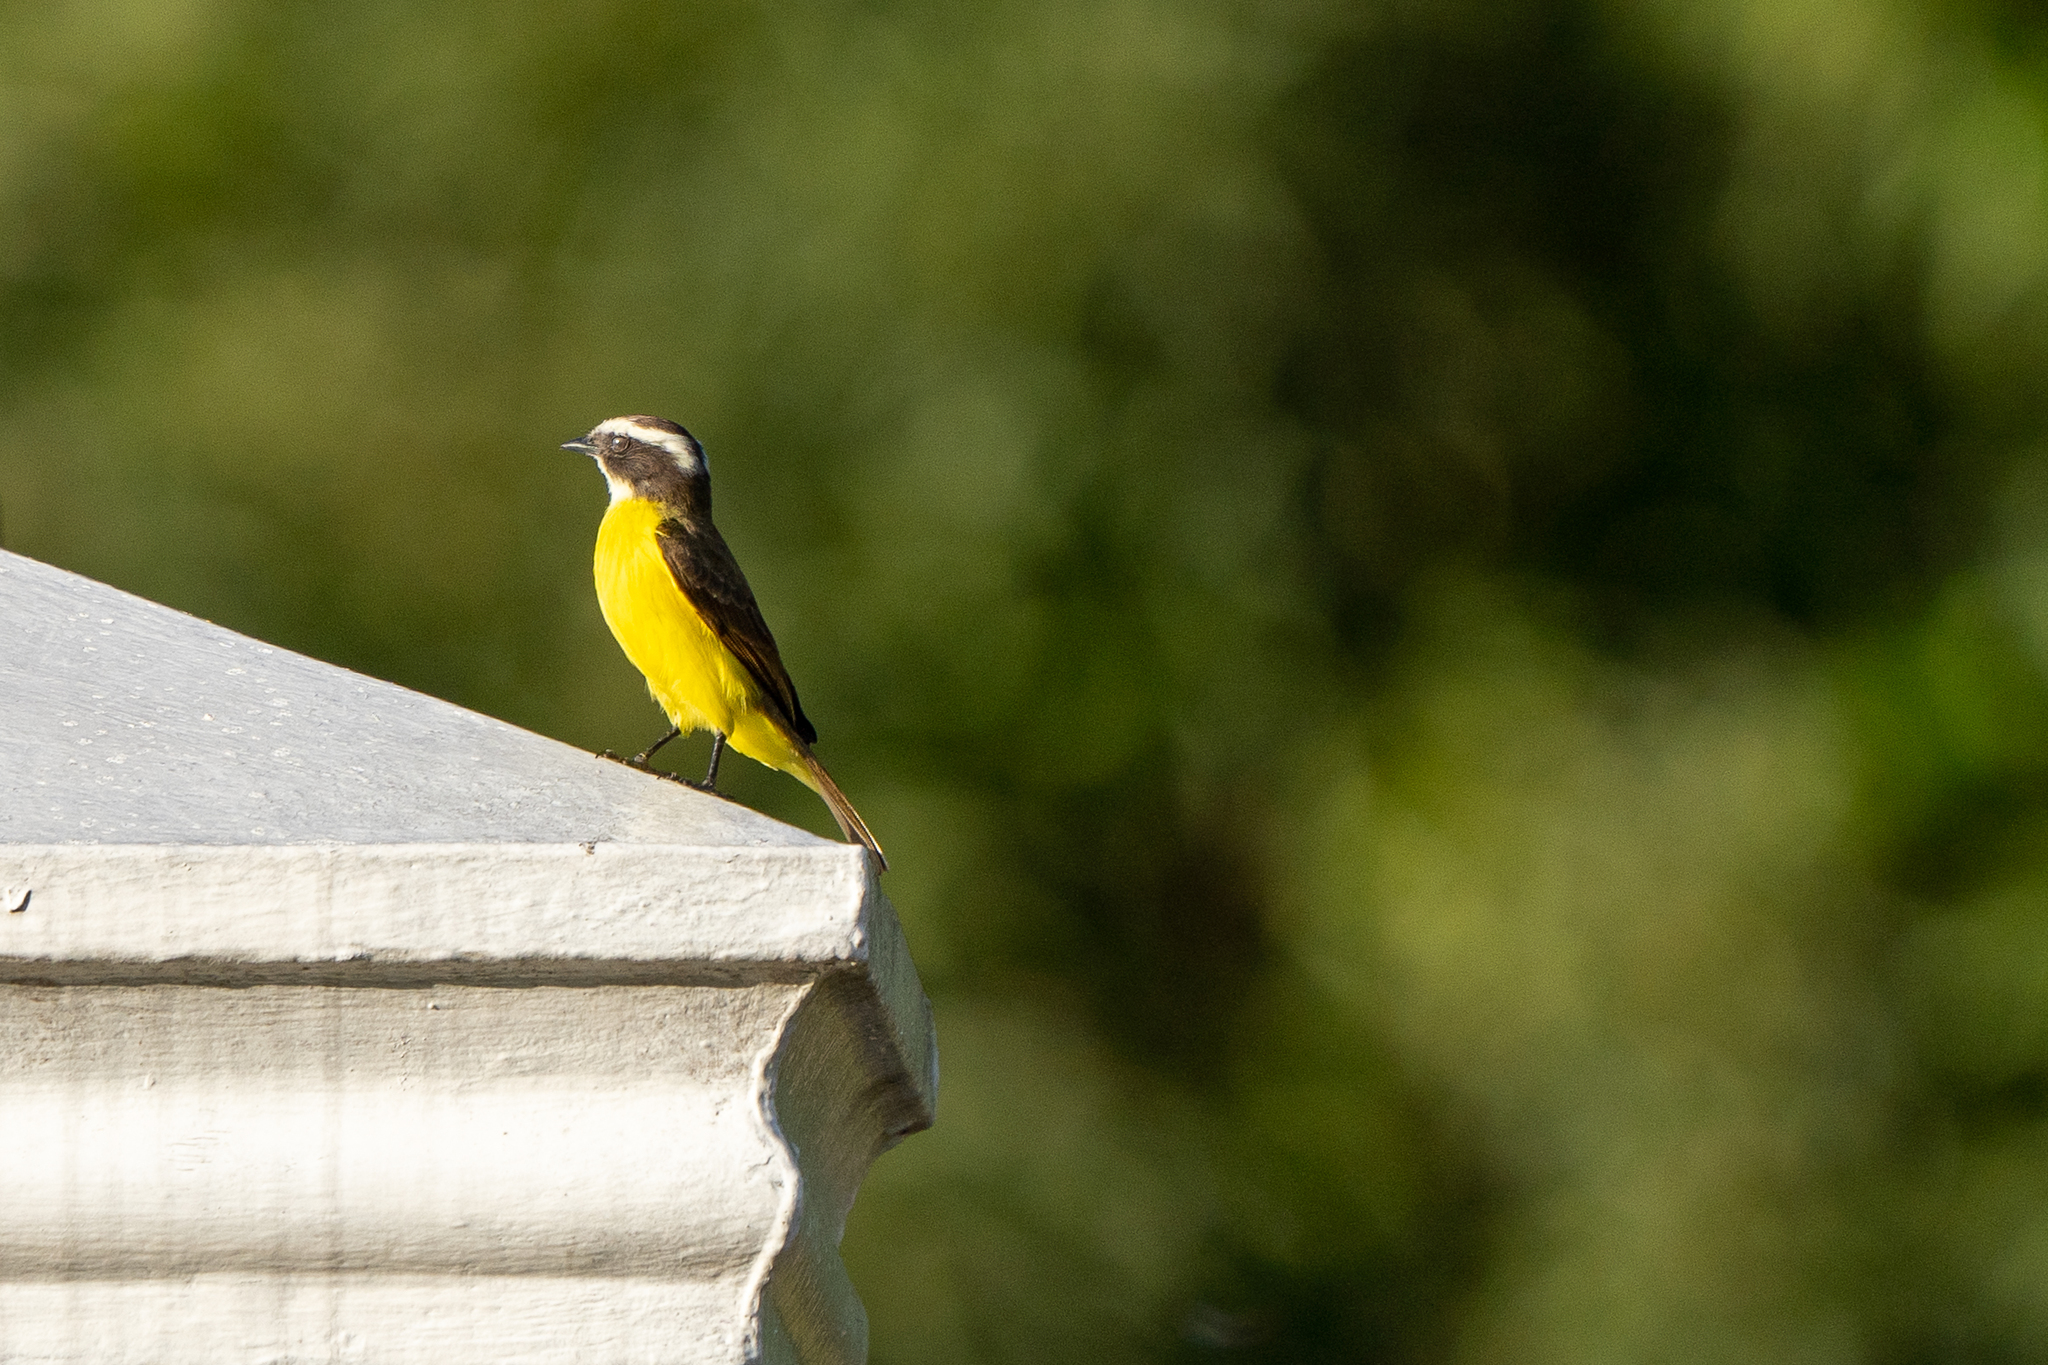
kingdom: Animalia
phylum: Chordata
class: Aves
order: Passeriformes
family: Tyrannidae
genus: Myiozetetes
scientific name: Myiozetetes cayanensis
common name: Rusty-margined flycatcher
